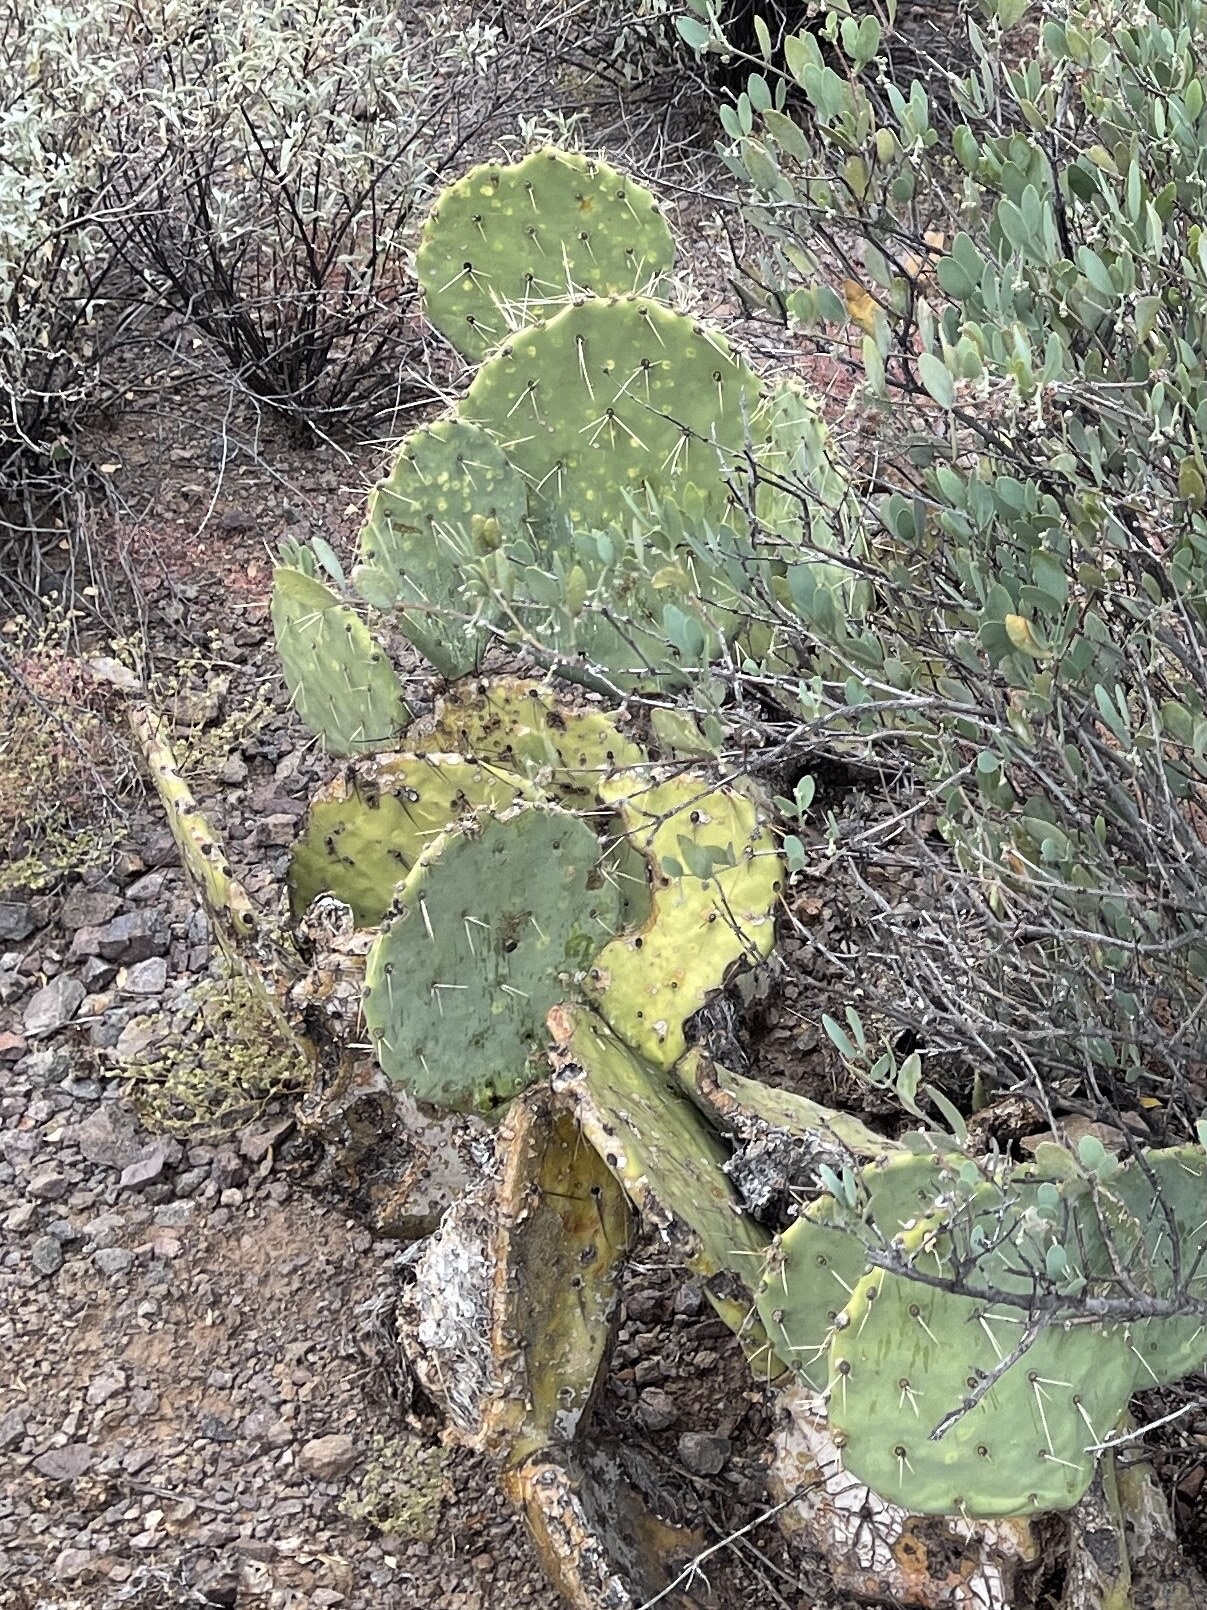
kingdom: Plantae
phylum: Tracheophyta
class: Magnoliopsida
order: Caryophyllales
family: Cactaceae
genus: Opuntia
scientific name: Opuntia orbiculata
